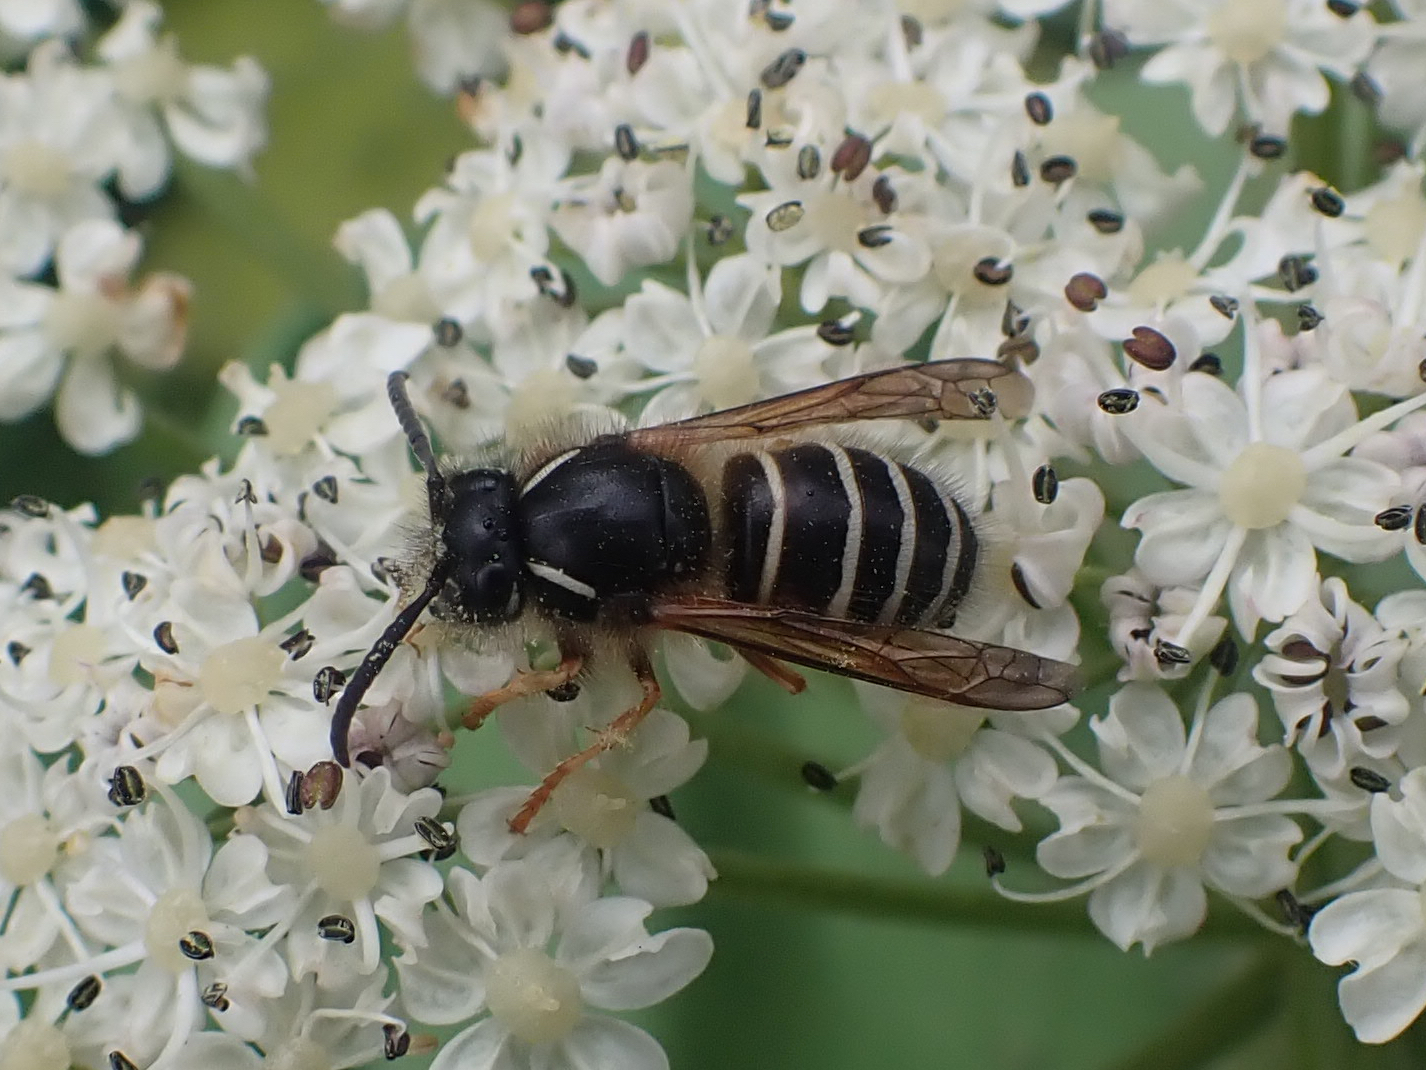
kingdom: Animalia
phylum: Arthropoda
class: Insecta
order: Hymenoptera
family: Vespidae
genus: Dolichovespula
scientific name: Dolichovespula norwegica
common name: Norwegian wasp
